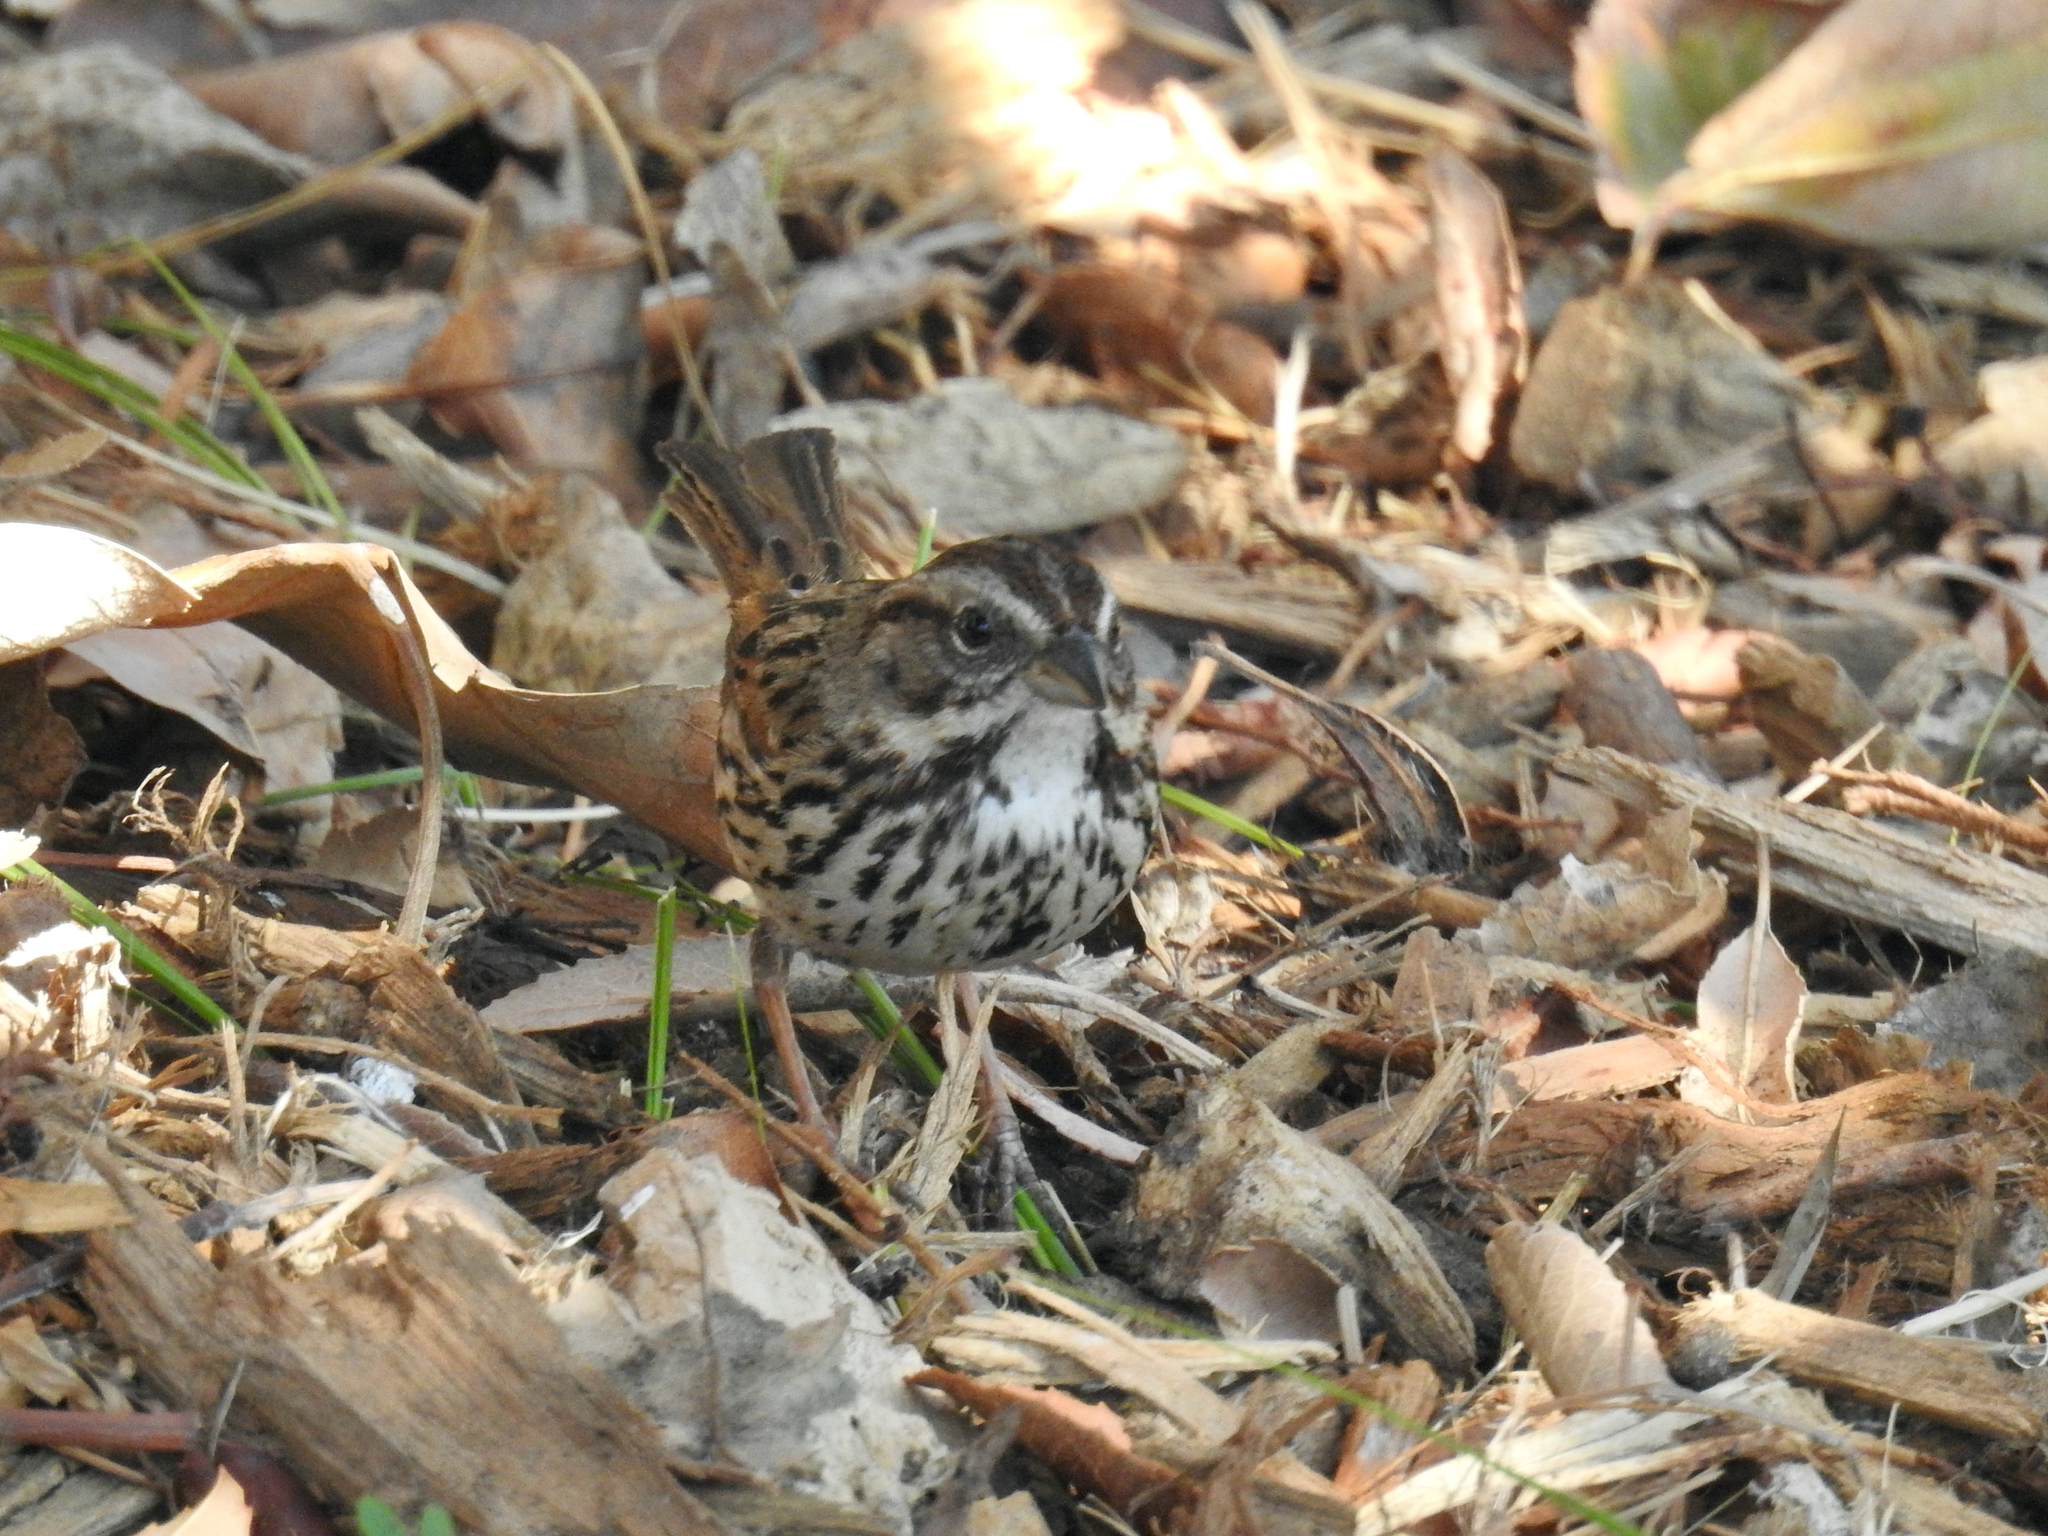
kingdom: Animalia
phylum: Chordata
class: Aves
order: Passeriformes
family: Passerellidae
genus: Melospiza
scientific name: Melospiza melodia
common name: Song sparrow
